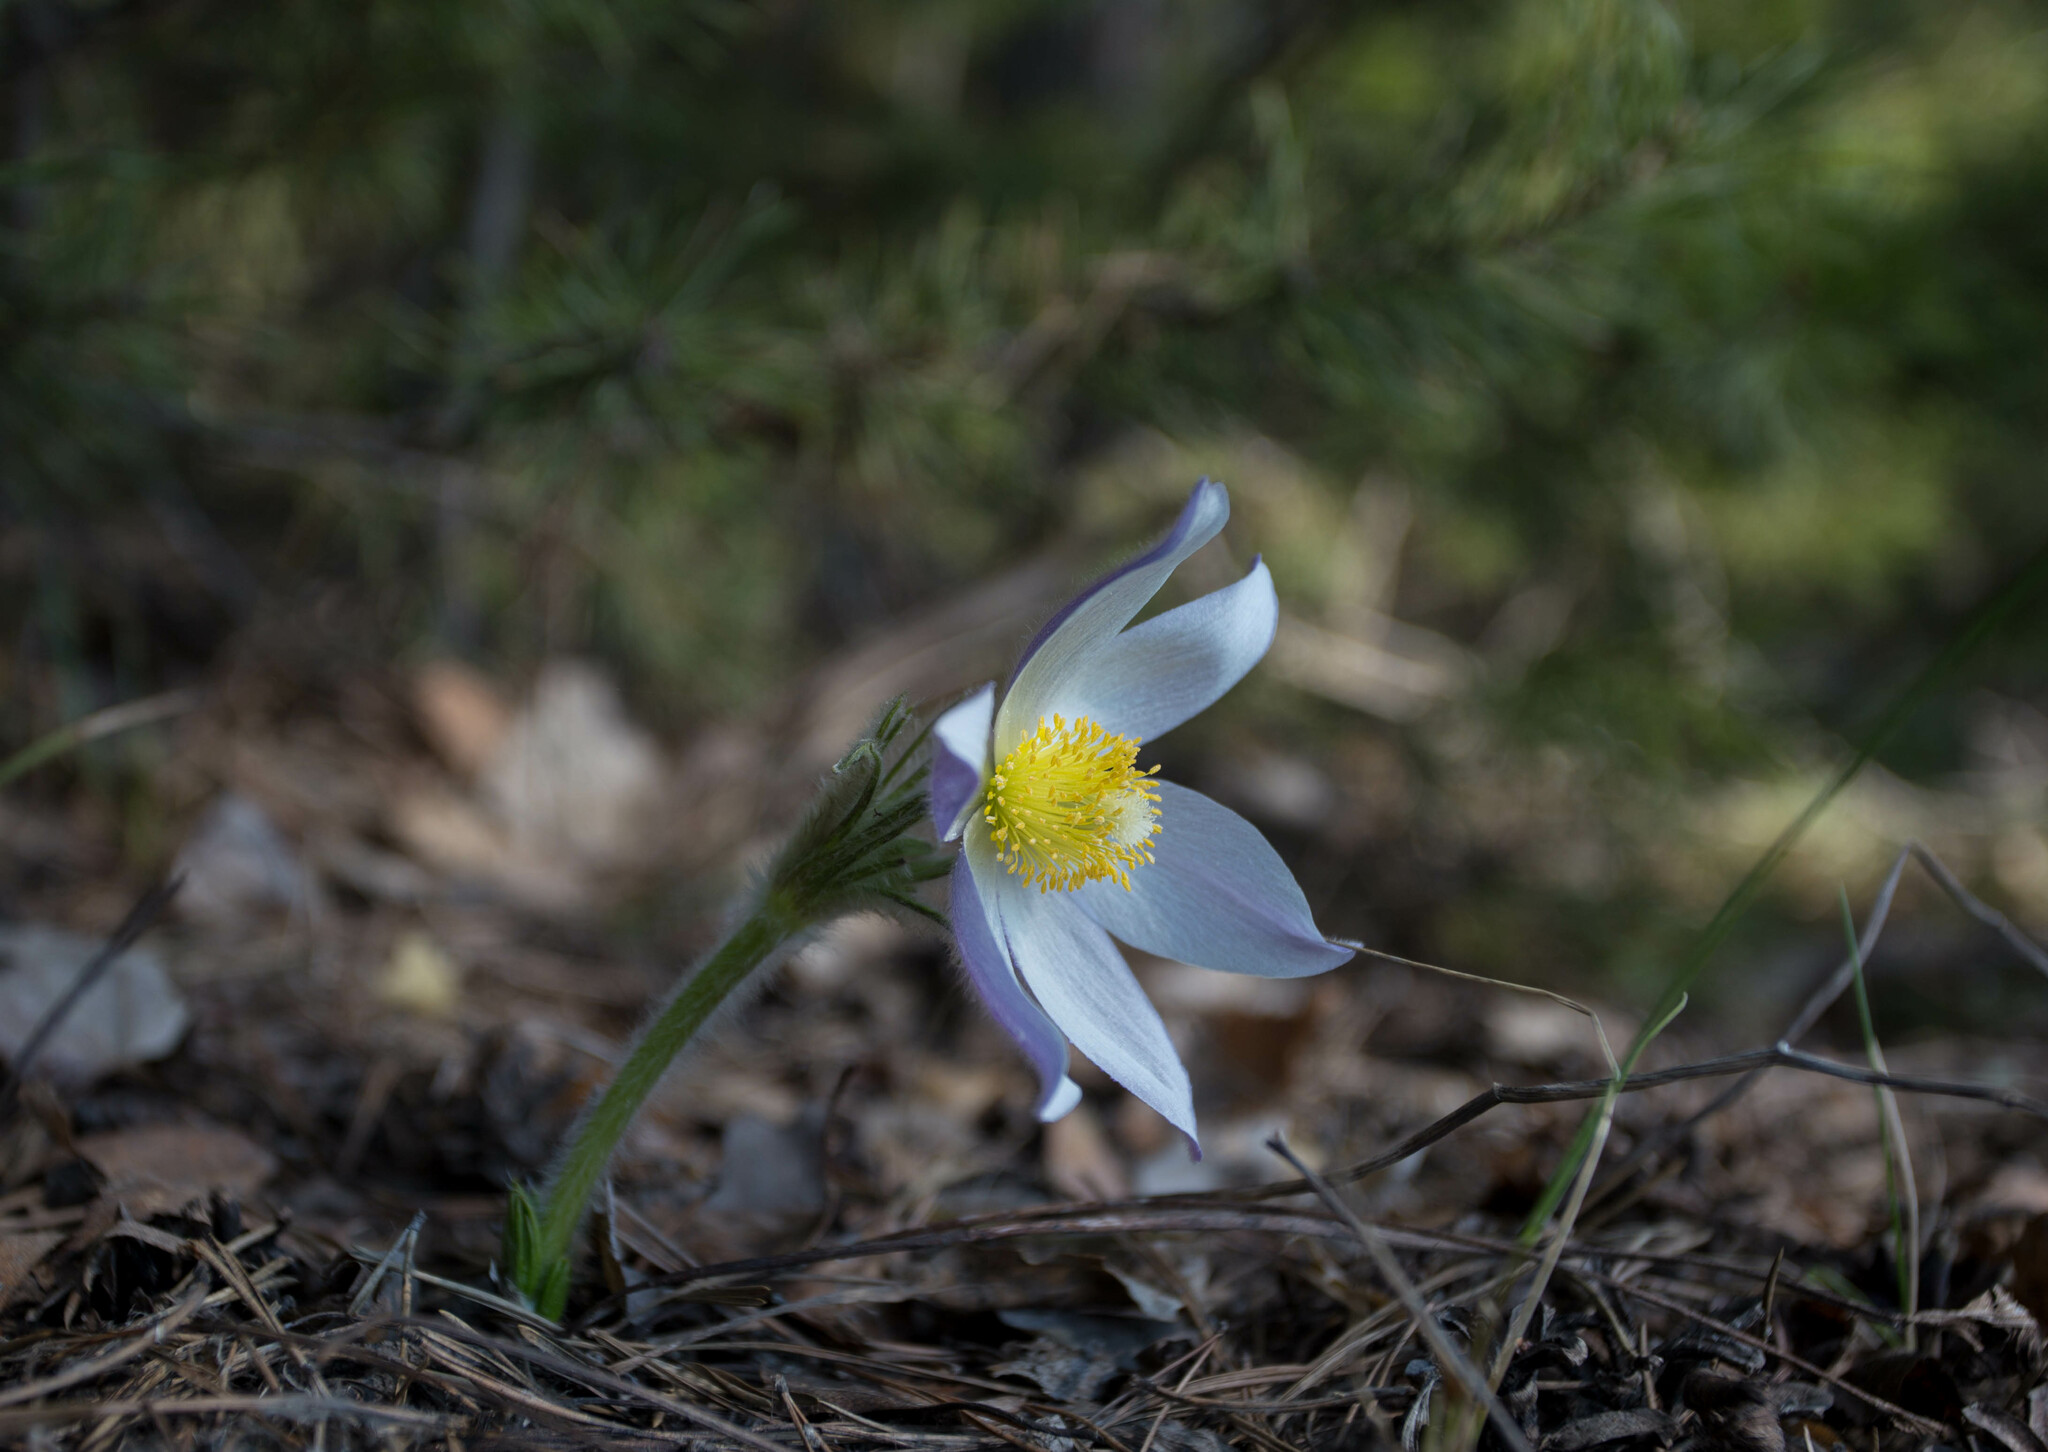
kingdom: Plantae
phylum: Tracheophyta
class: Magnoliopsida
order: Ranunculales
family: Ranunculaceae
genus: Pulsatilla
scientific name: Pulsatilla patens
